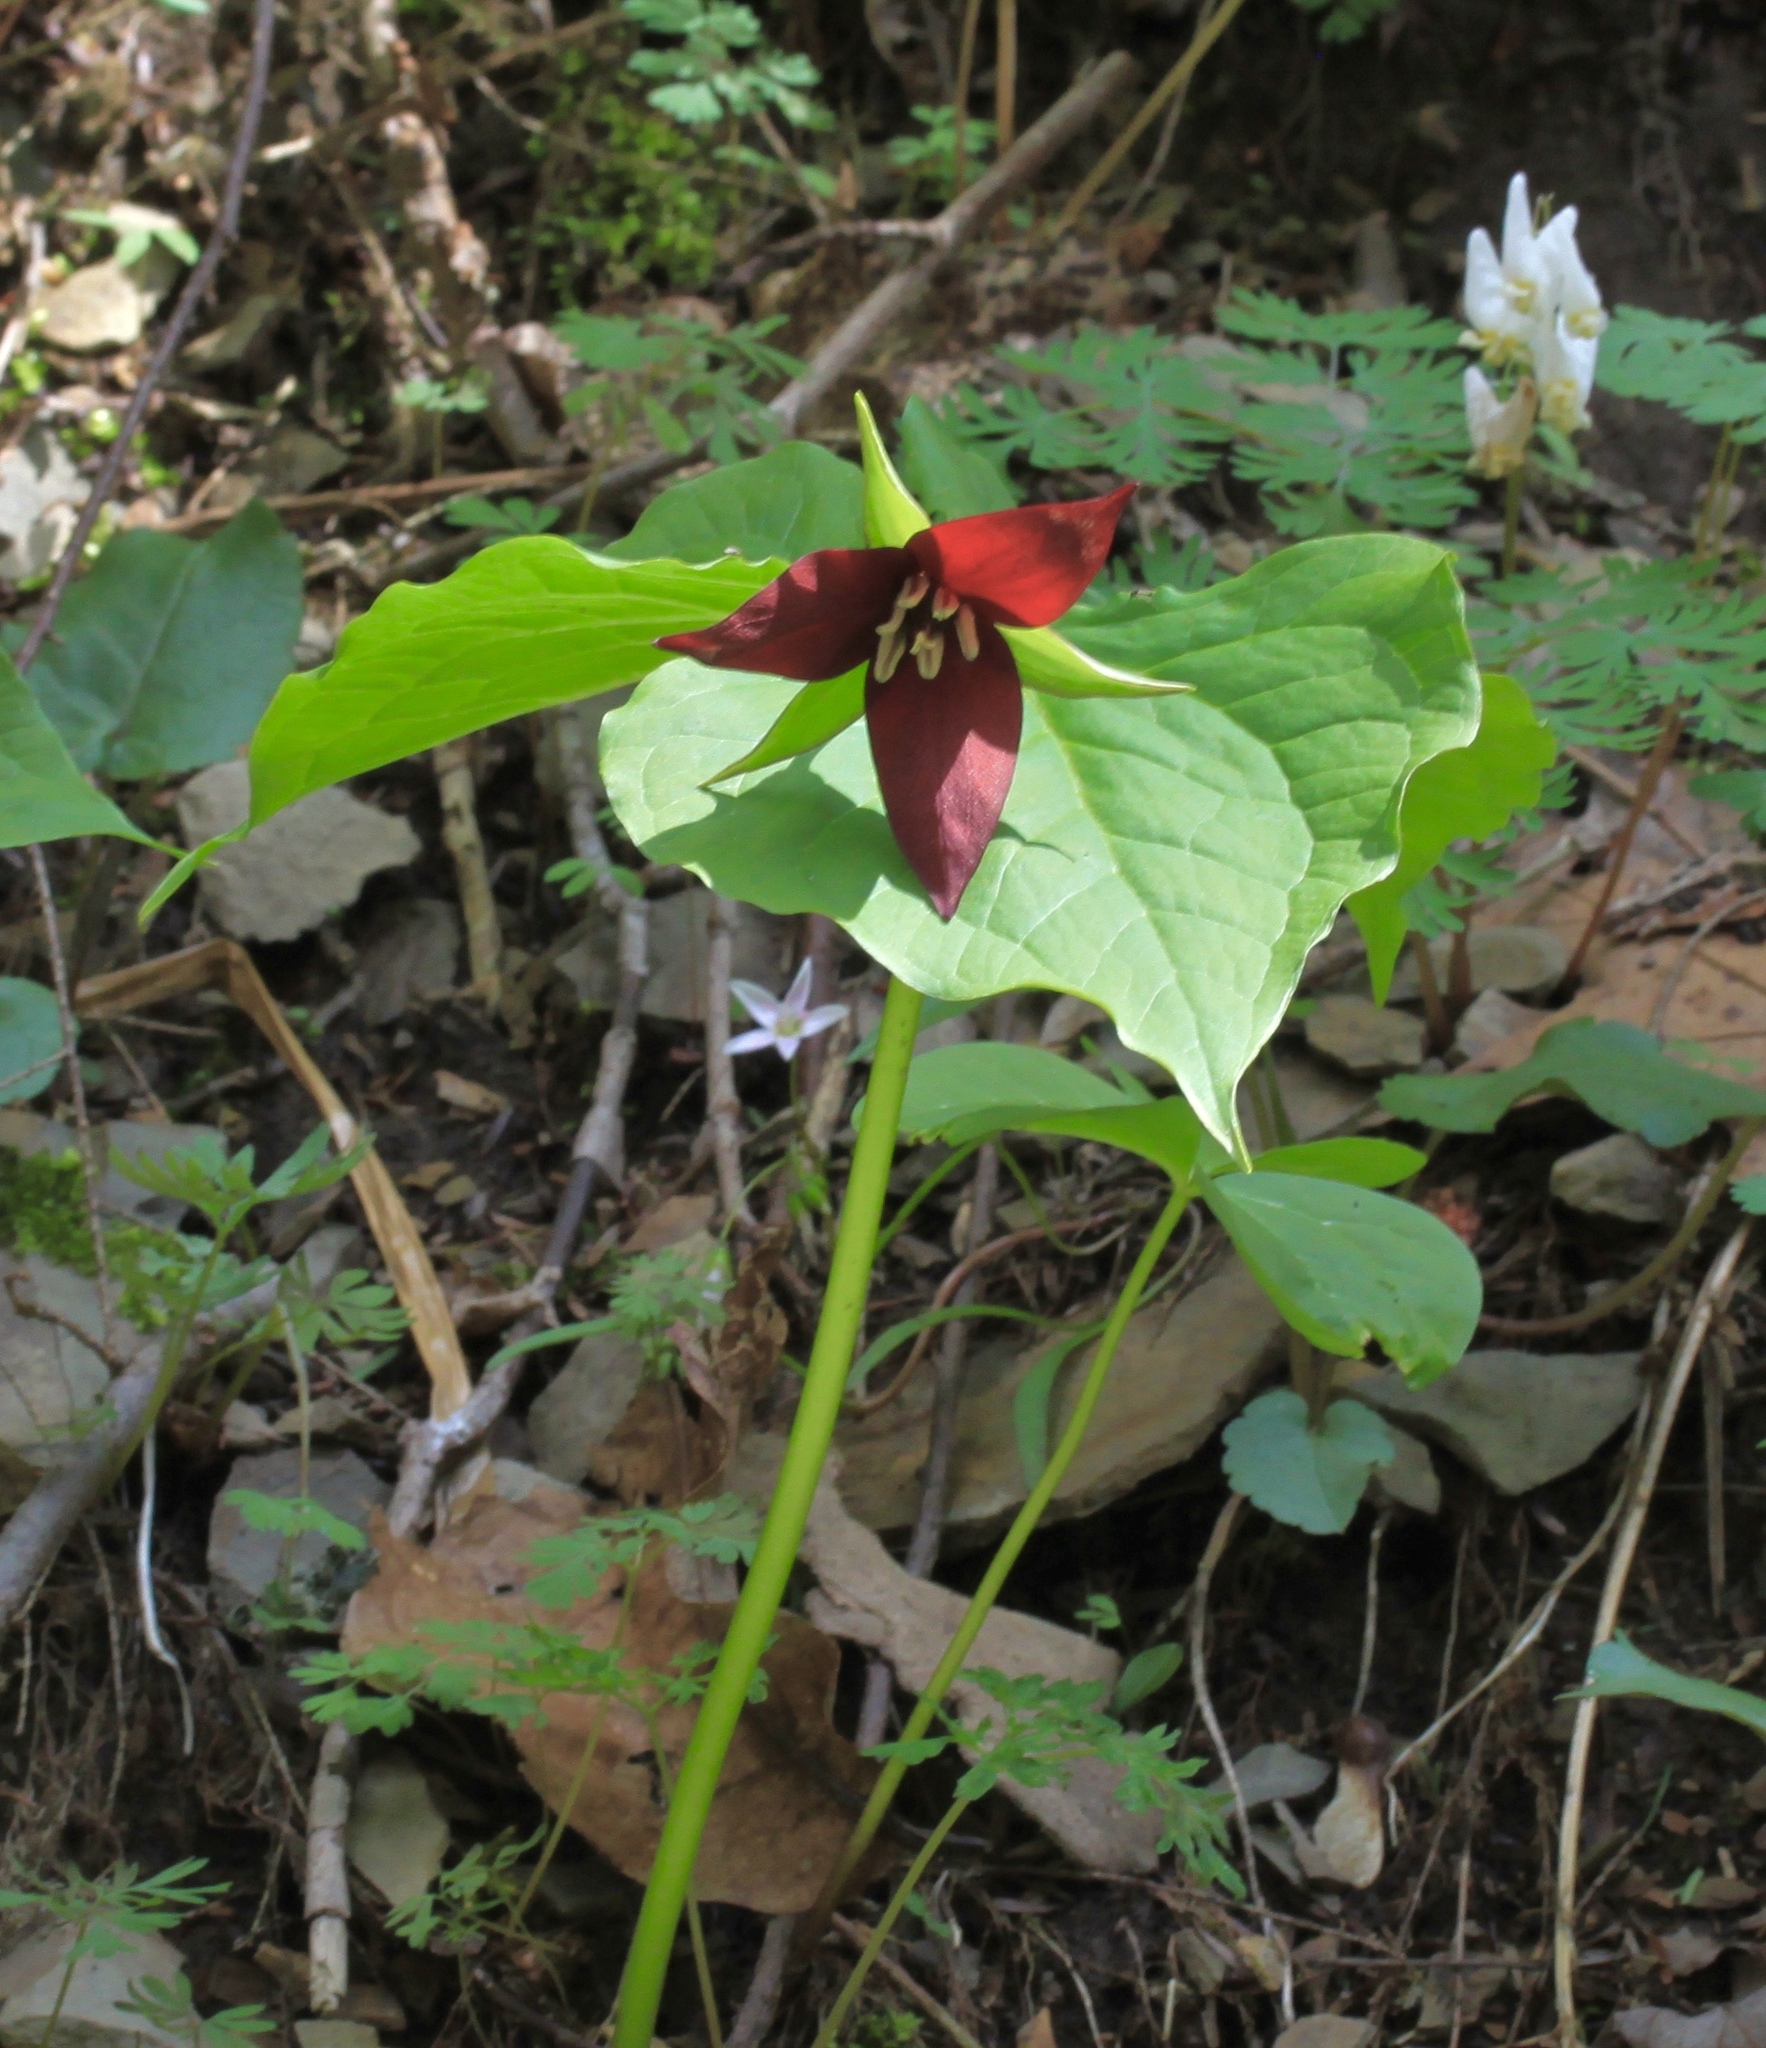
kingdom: Plantae
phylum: Tracheophyta
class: Liliopsida
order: Liliales
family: Melanthiaceae
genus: Trillium
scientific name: Trillium erectum
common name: Purple trillium
